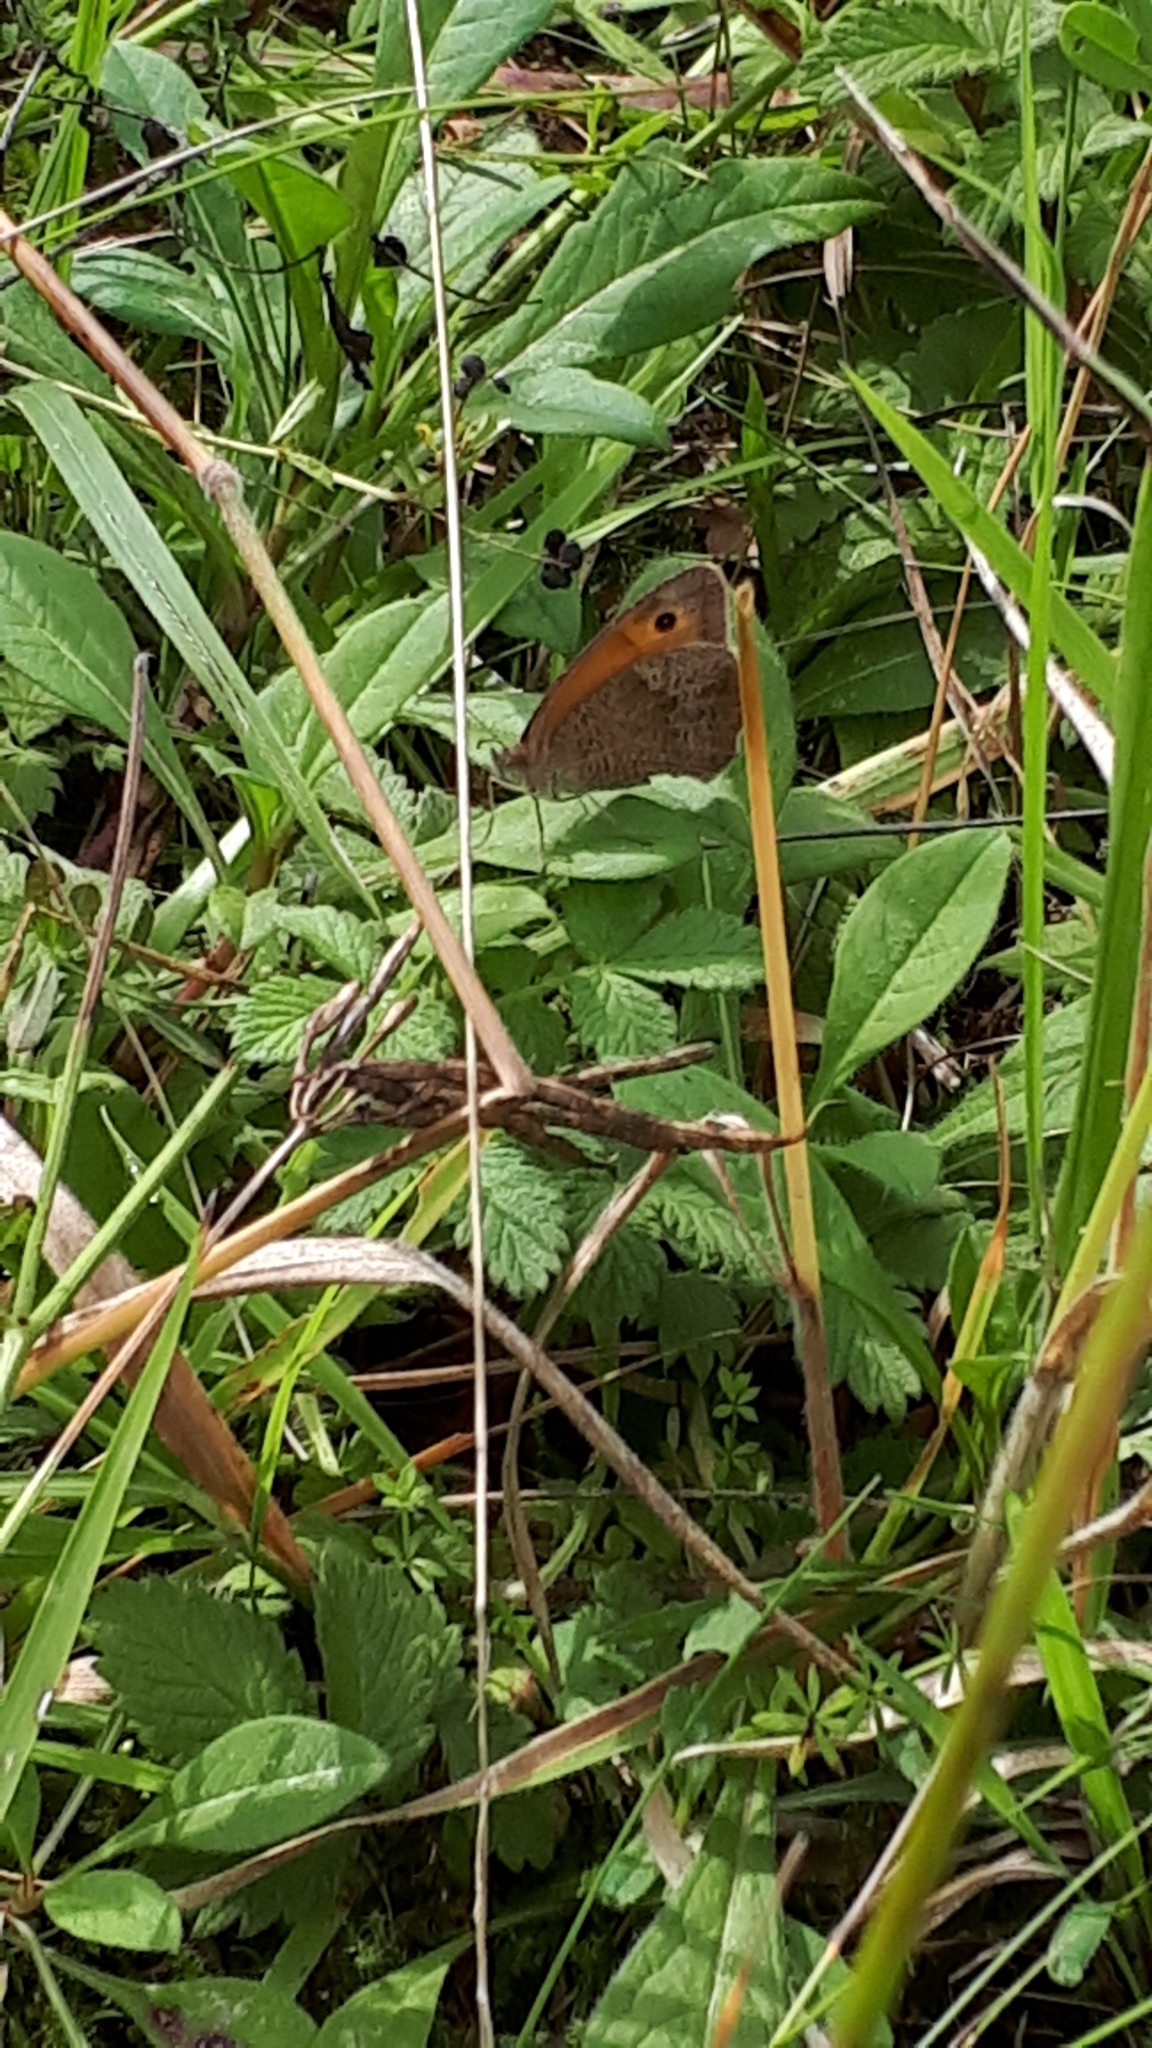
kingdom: Animalia
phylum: Arthropoda
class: Insecta
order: Lepidoptera
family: Nymphalidae
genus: Maniola
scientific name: Maniola jurtina
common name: Meadow brown
